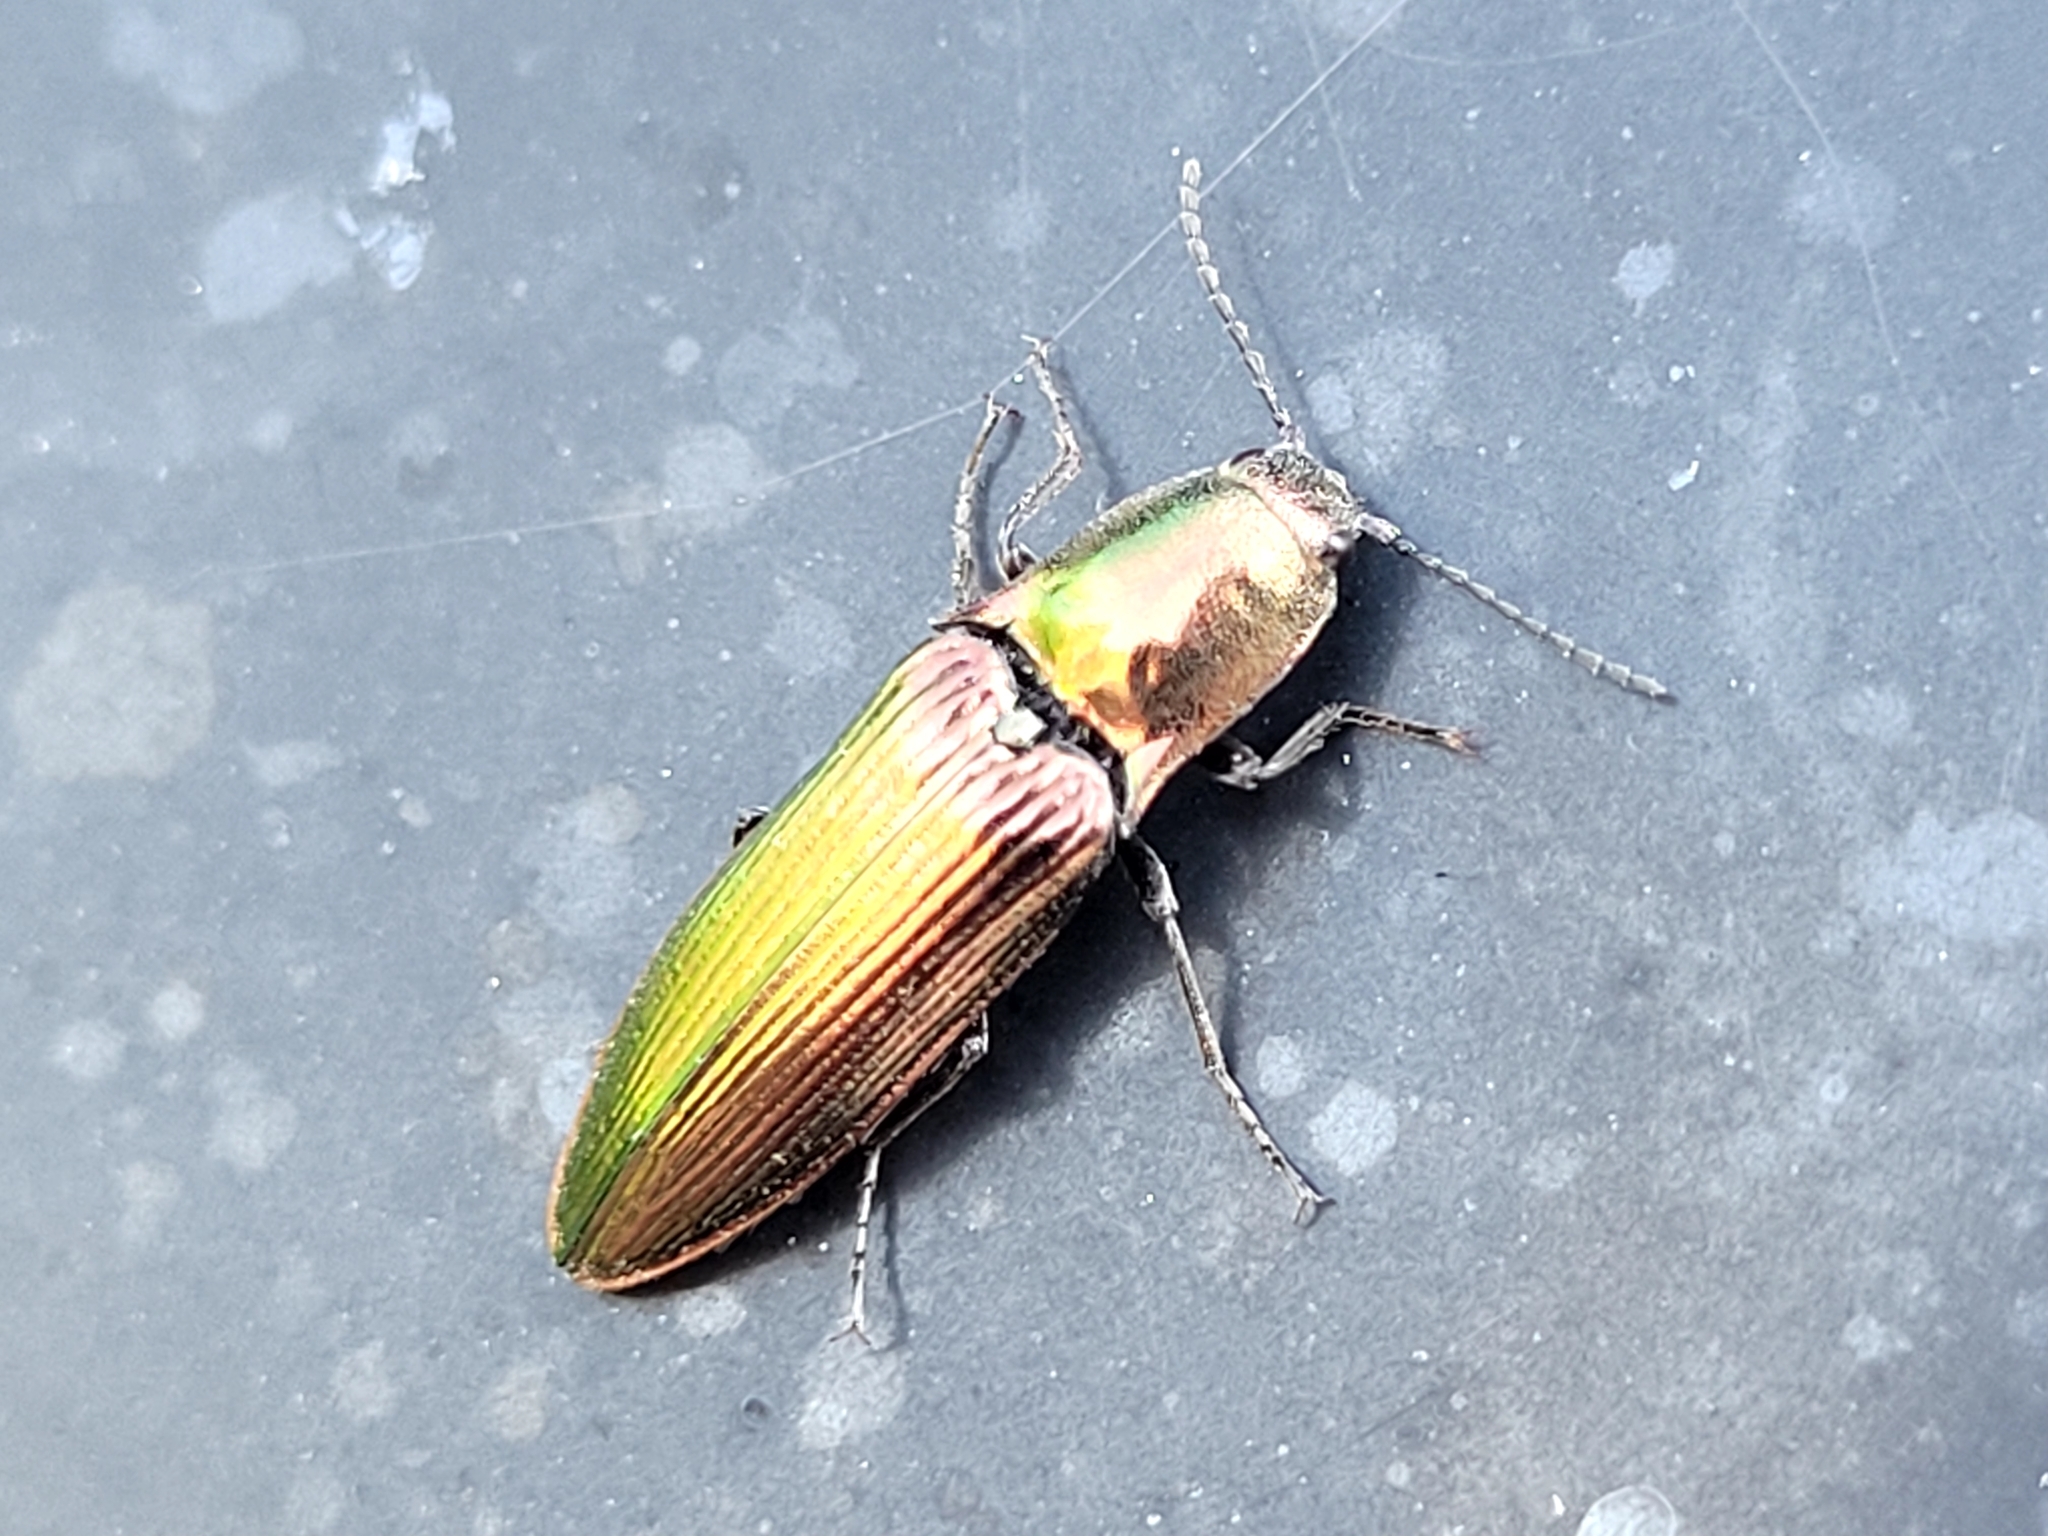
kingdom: Animalia
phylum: Arthropoda
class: Insecta
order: Coleoptera
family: Elateridae
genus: Nitidolimonius
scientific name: Nitidolimonius resplendens
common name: Resplendent click beetle
